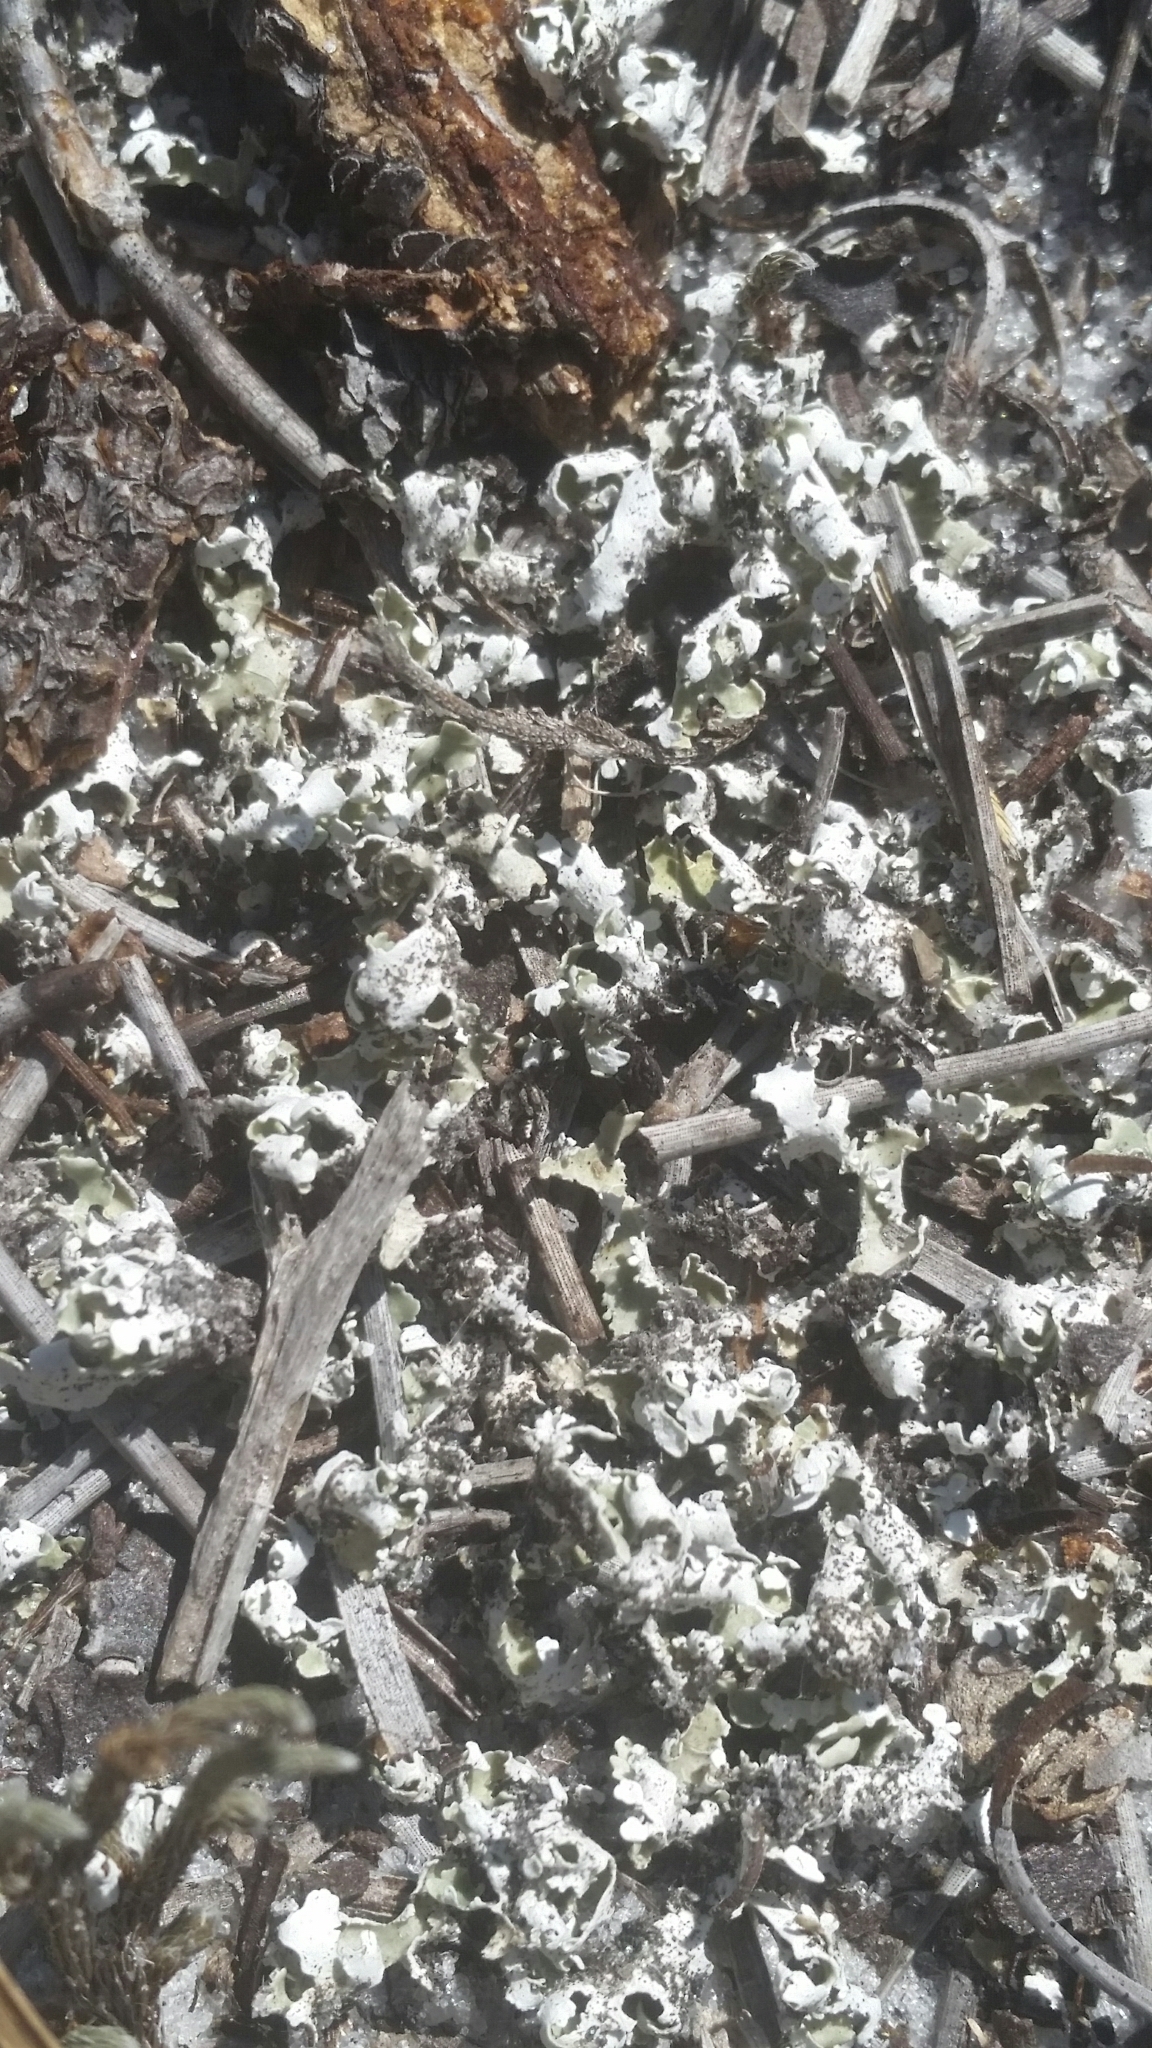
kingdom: Fungi
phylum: Ascomycota
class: Lecanoromycetes
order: Lecanorales
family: Cladoniaceae
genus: Cladonia
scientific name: Cladonia prostrata
